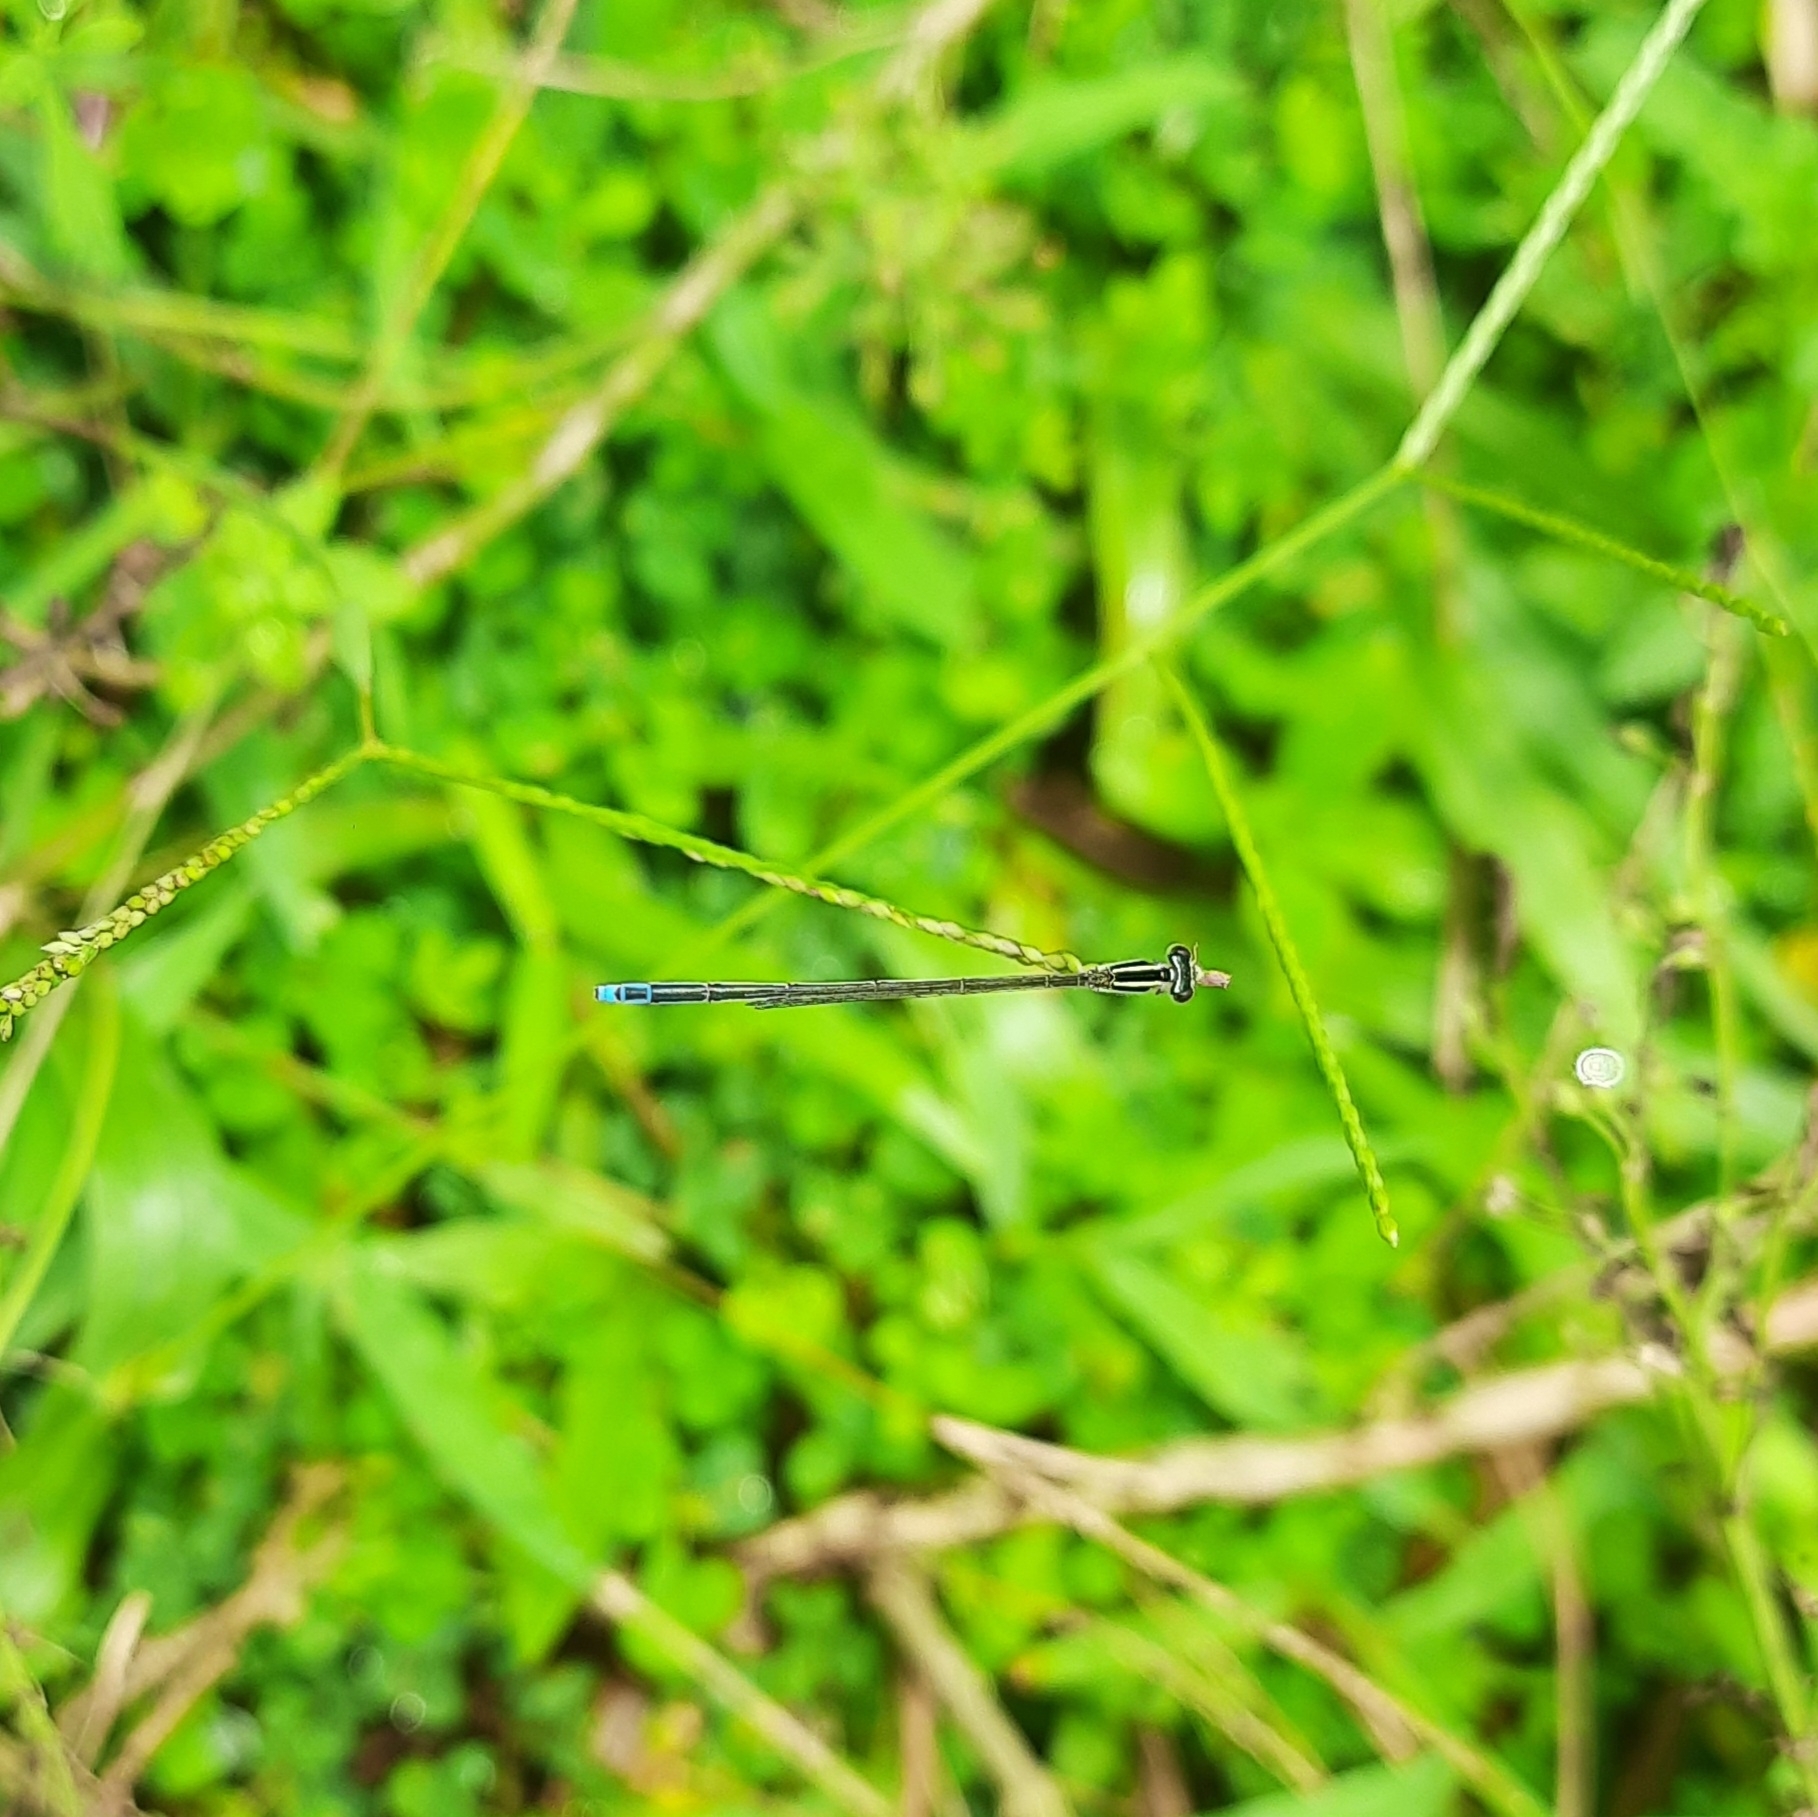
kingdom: Animalia
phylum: Arthropoda
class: Insecta
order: Odonata
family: Coenagrionidae
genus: Aciagrion
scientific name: Aciagrion occidentale
